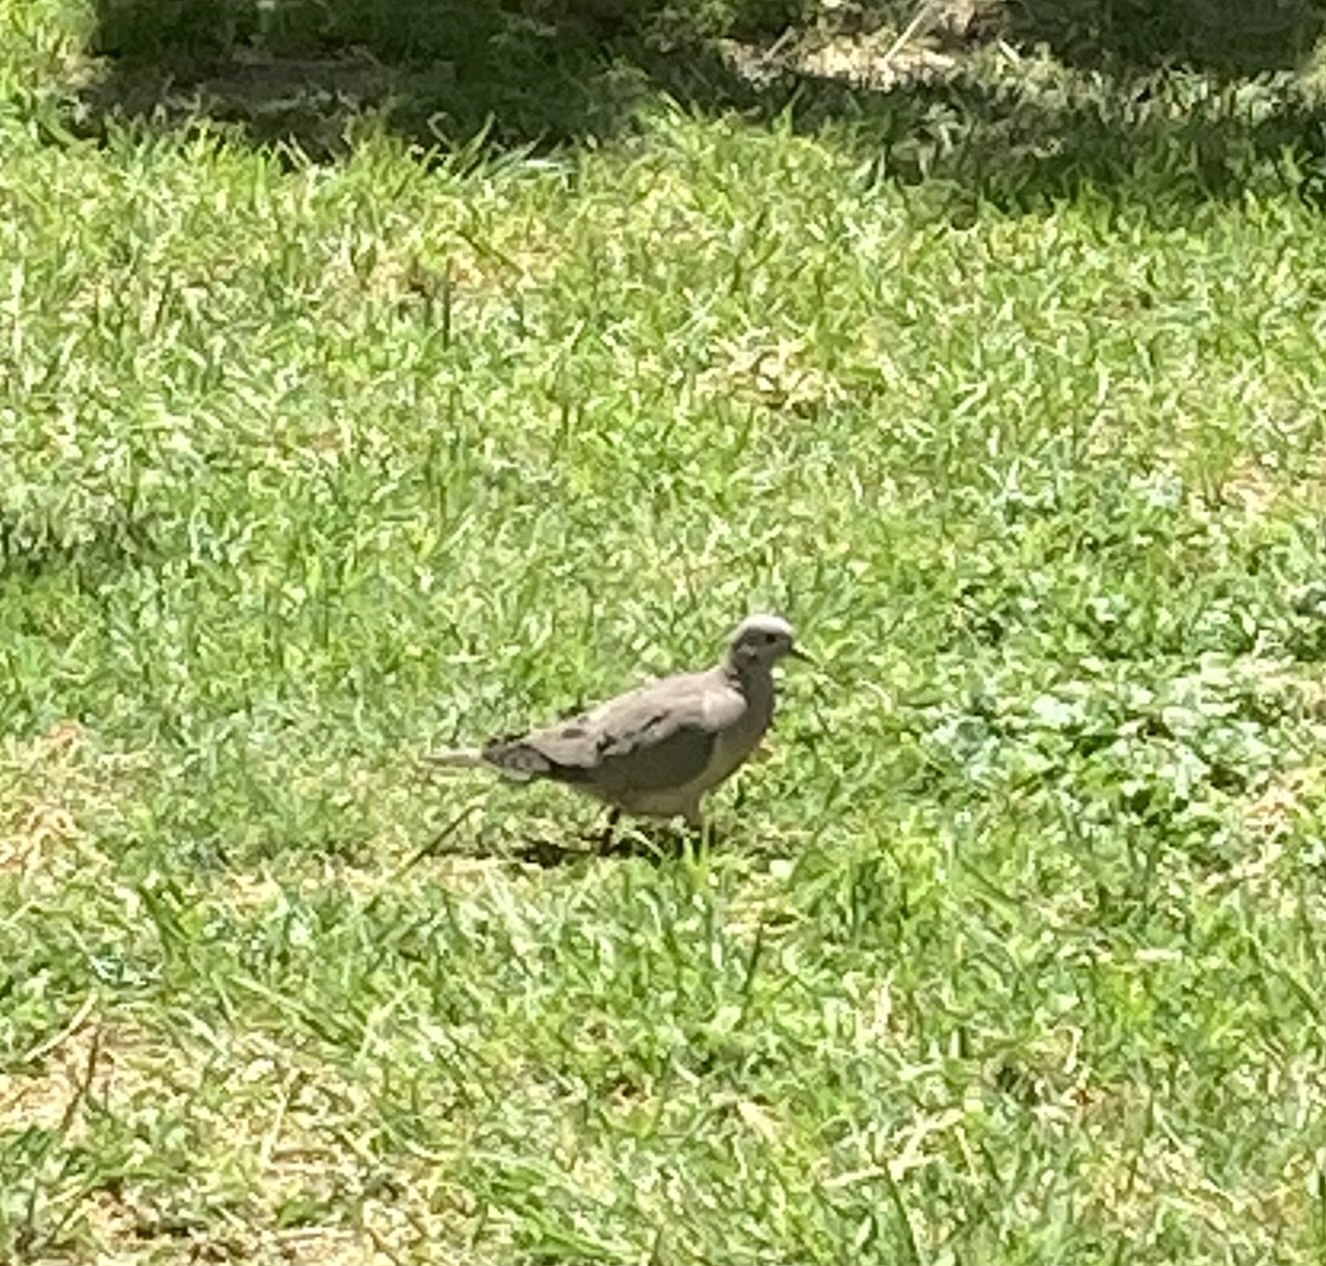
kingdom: Animalia
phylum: Chordata
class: Aves
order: Columbiformes
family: Columbidae
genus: Zenaida
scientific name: Zenaida auriculata
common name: Eared dove
